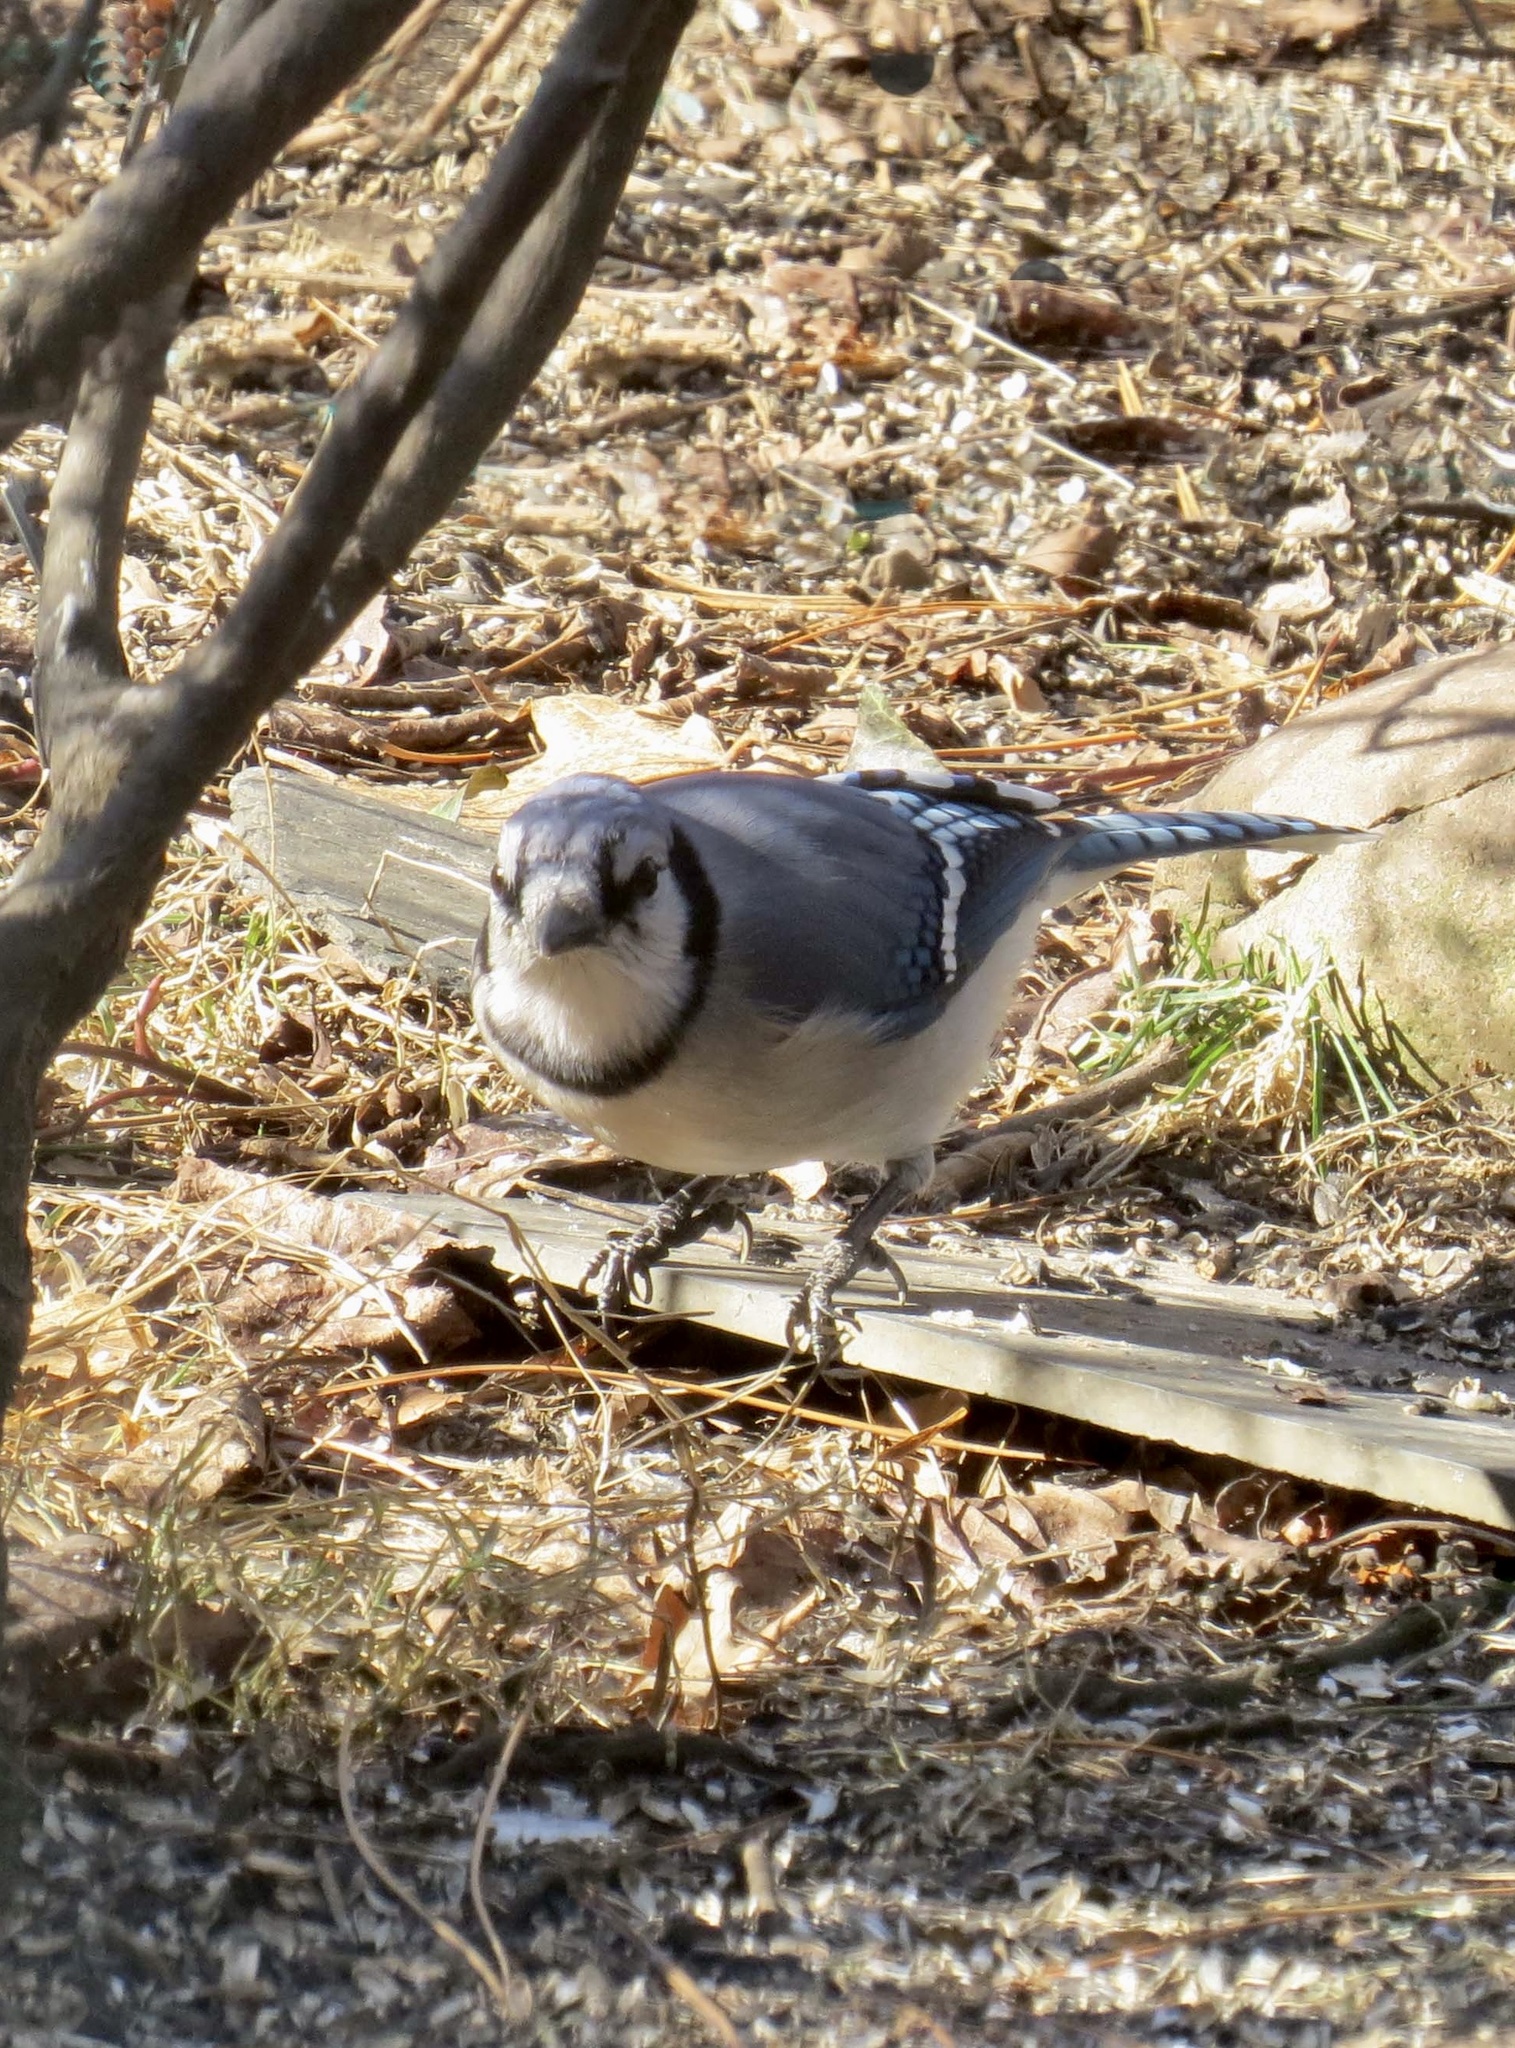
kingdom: Animalia
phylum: Chordata
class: Aves
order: Passeriformes
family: Corvidae
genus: Cyanocitta
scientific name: Cyanocitta cristata
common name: Blue jay
